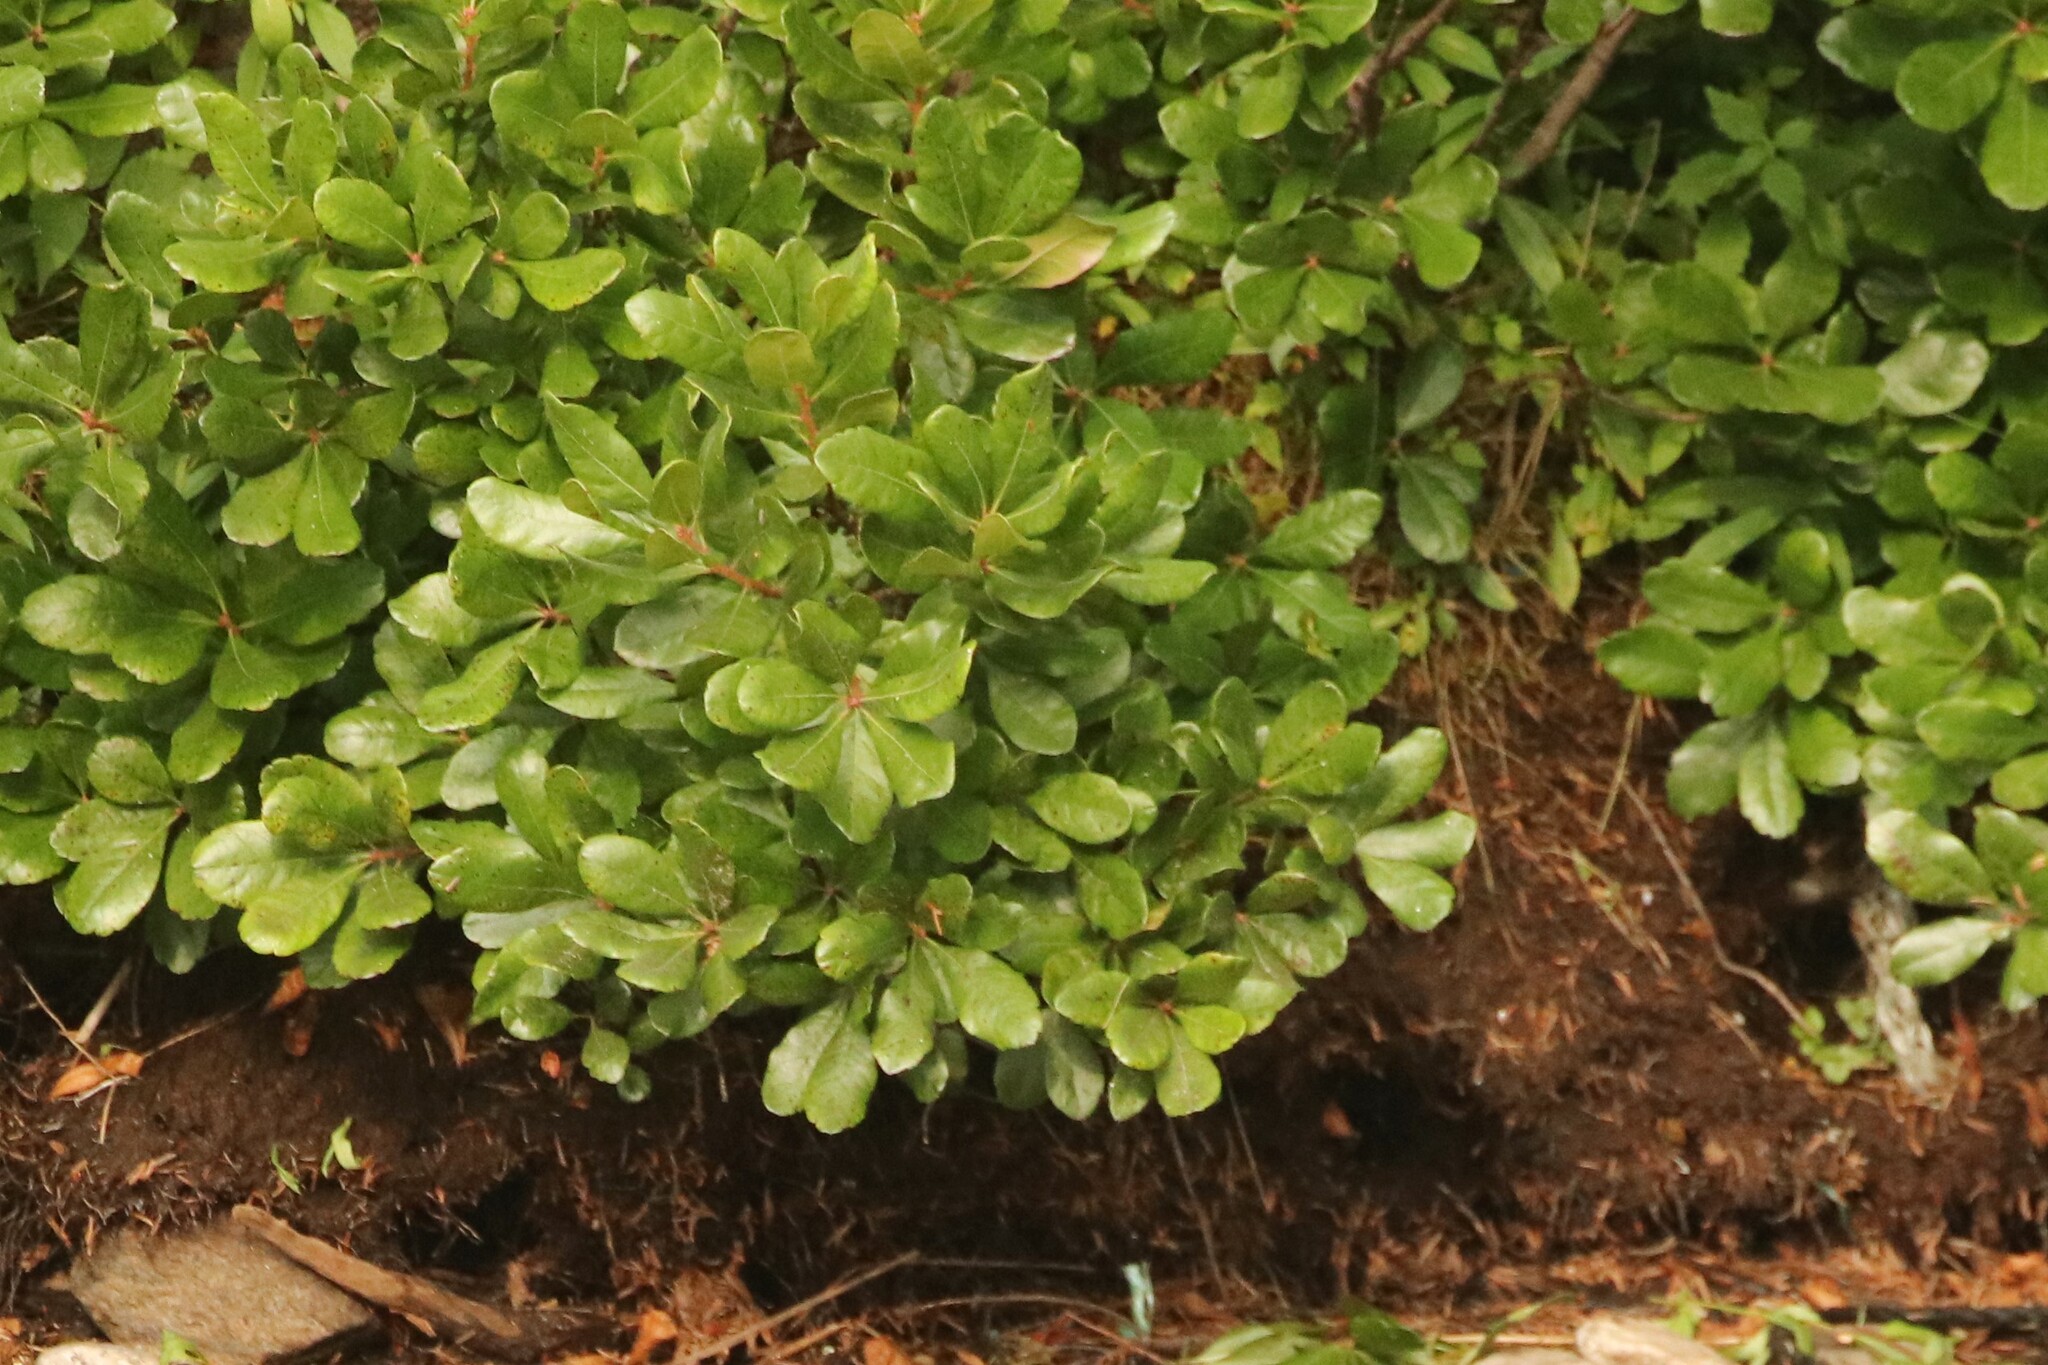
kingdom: Plantae
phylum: Tracheophyta
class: Magnoliopsida
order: Fagales
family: Myricaceae
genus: Morella
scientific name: Morella pensylvanica
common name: Northern bayberry
